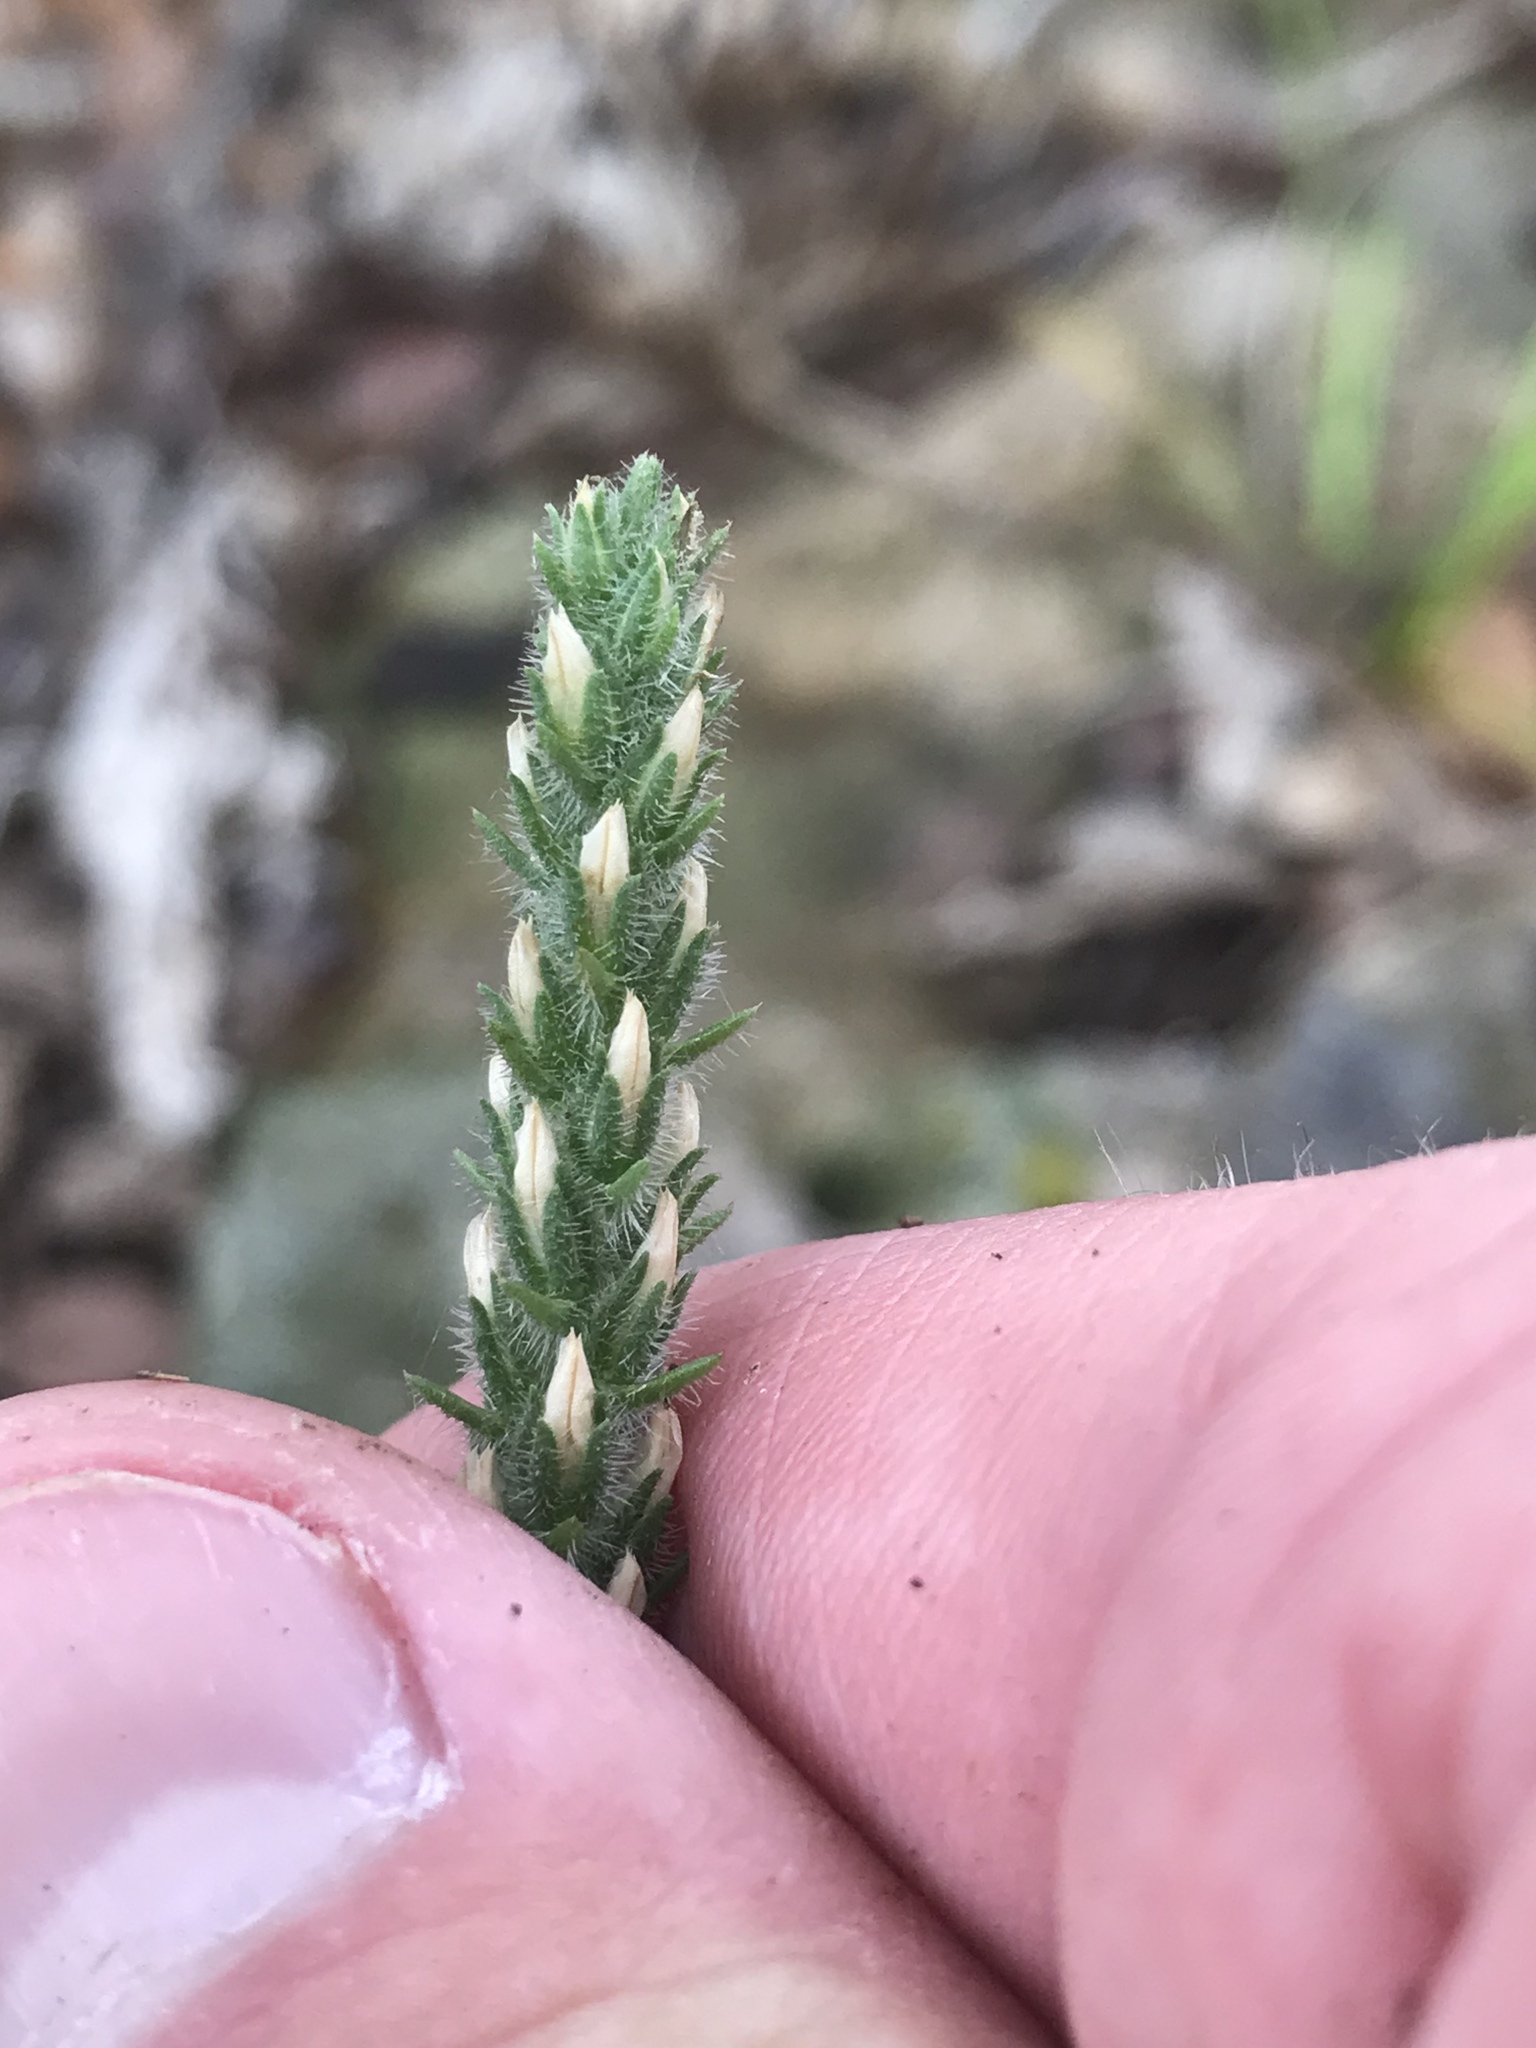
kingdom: Plantae
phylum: Tracheophyta
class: Magnoliopsida
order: Lamiales
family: Plantaginaceae
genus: Plantago
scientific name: Plantago virginica
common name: Hoary plantain
